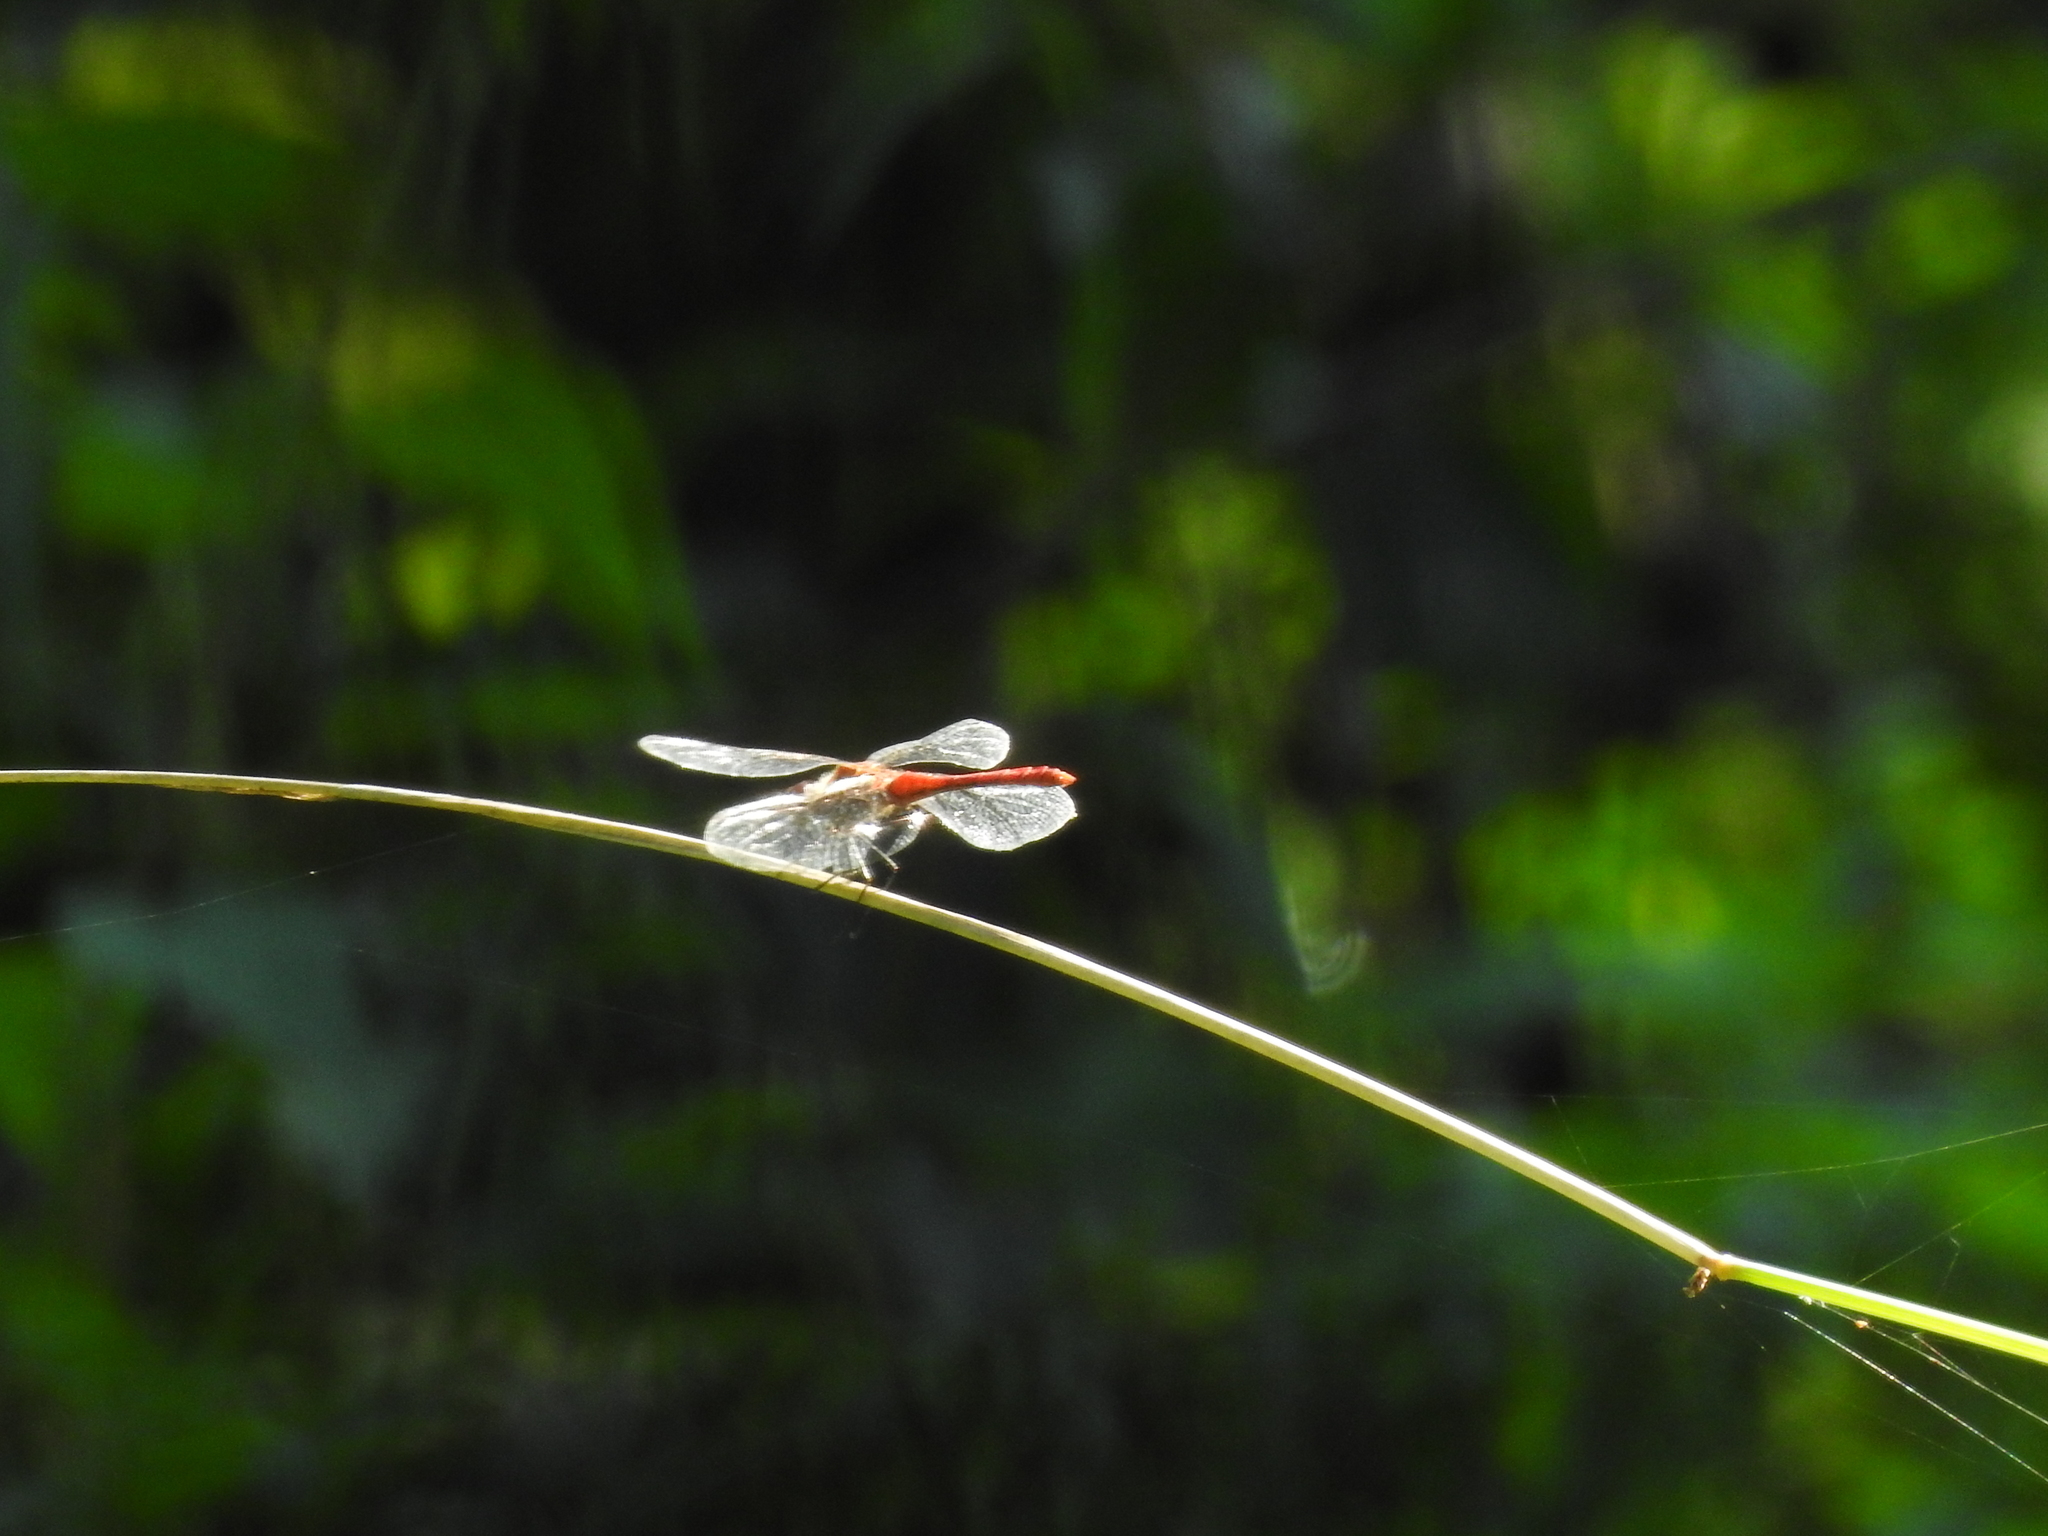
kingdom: Animalia
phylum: Arthropoda
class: Insecta
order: Odonata
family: Libellulidae
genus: Sympetrum
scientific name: Sympetrum sanguineum
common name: Ruddy darter
